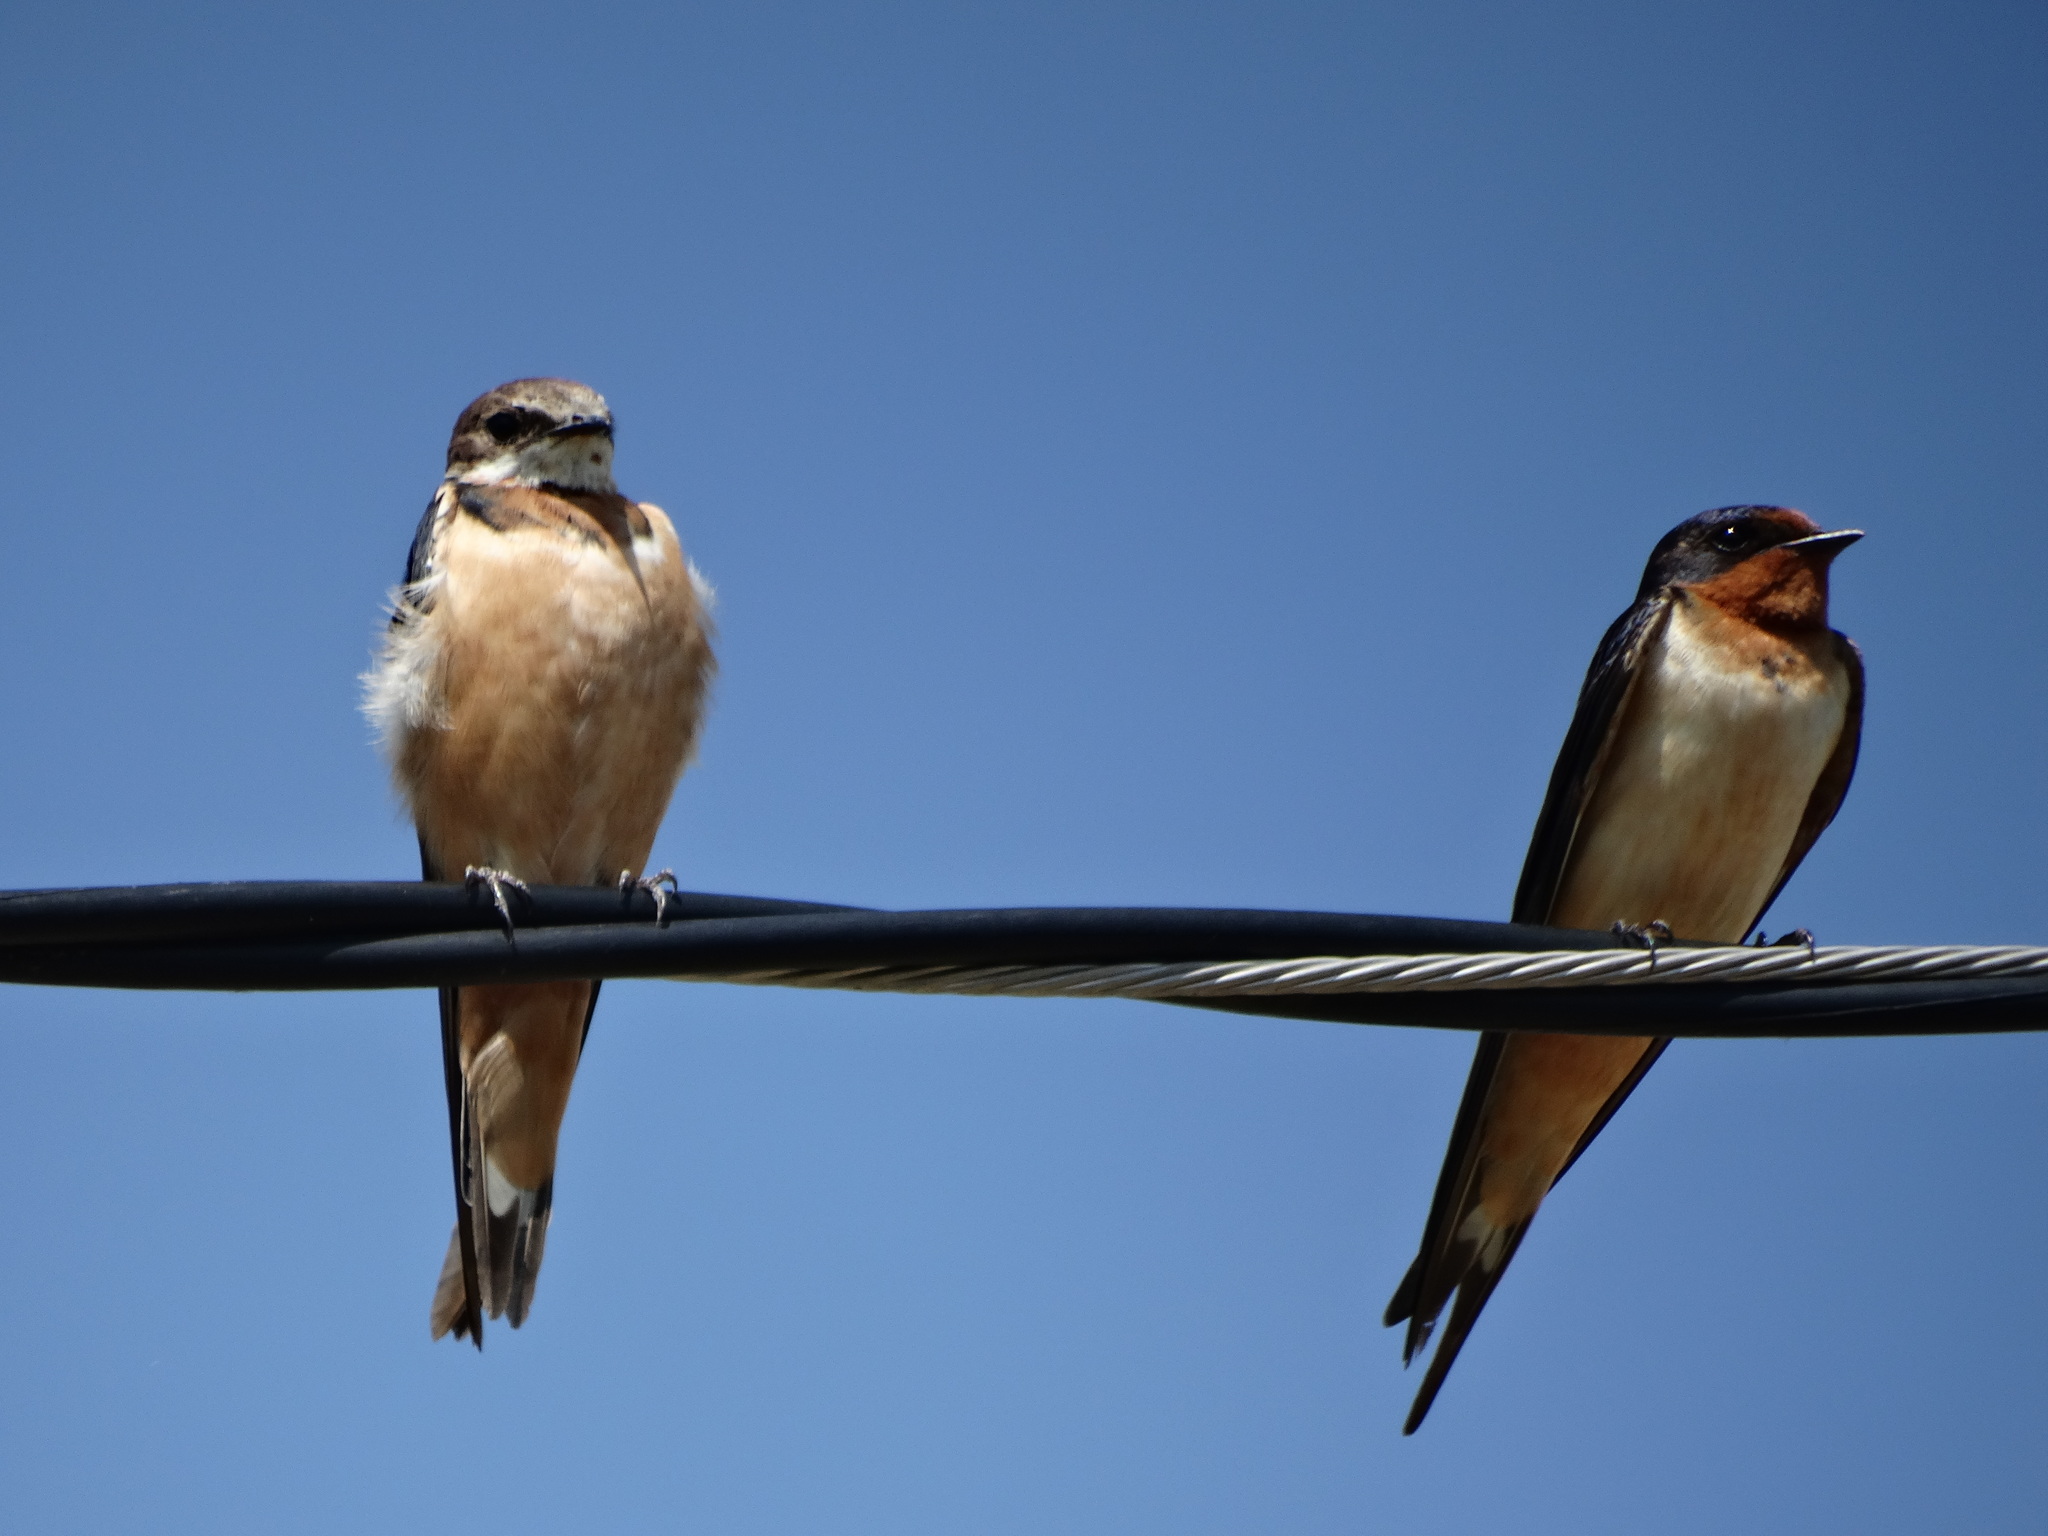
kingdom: Animalia
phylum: Chordata
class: Aves
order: Passeriformes
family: Hirundinidae
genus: Hirundo
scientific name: Hirundo rustica
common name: Barn swallow
